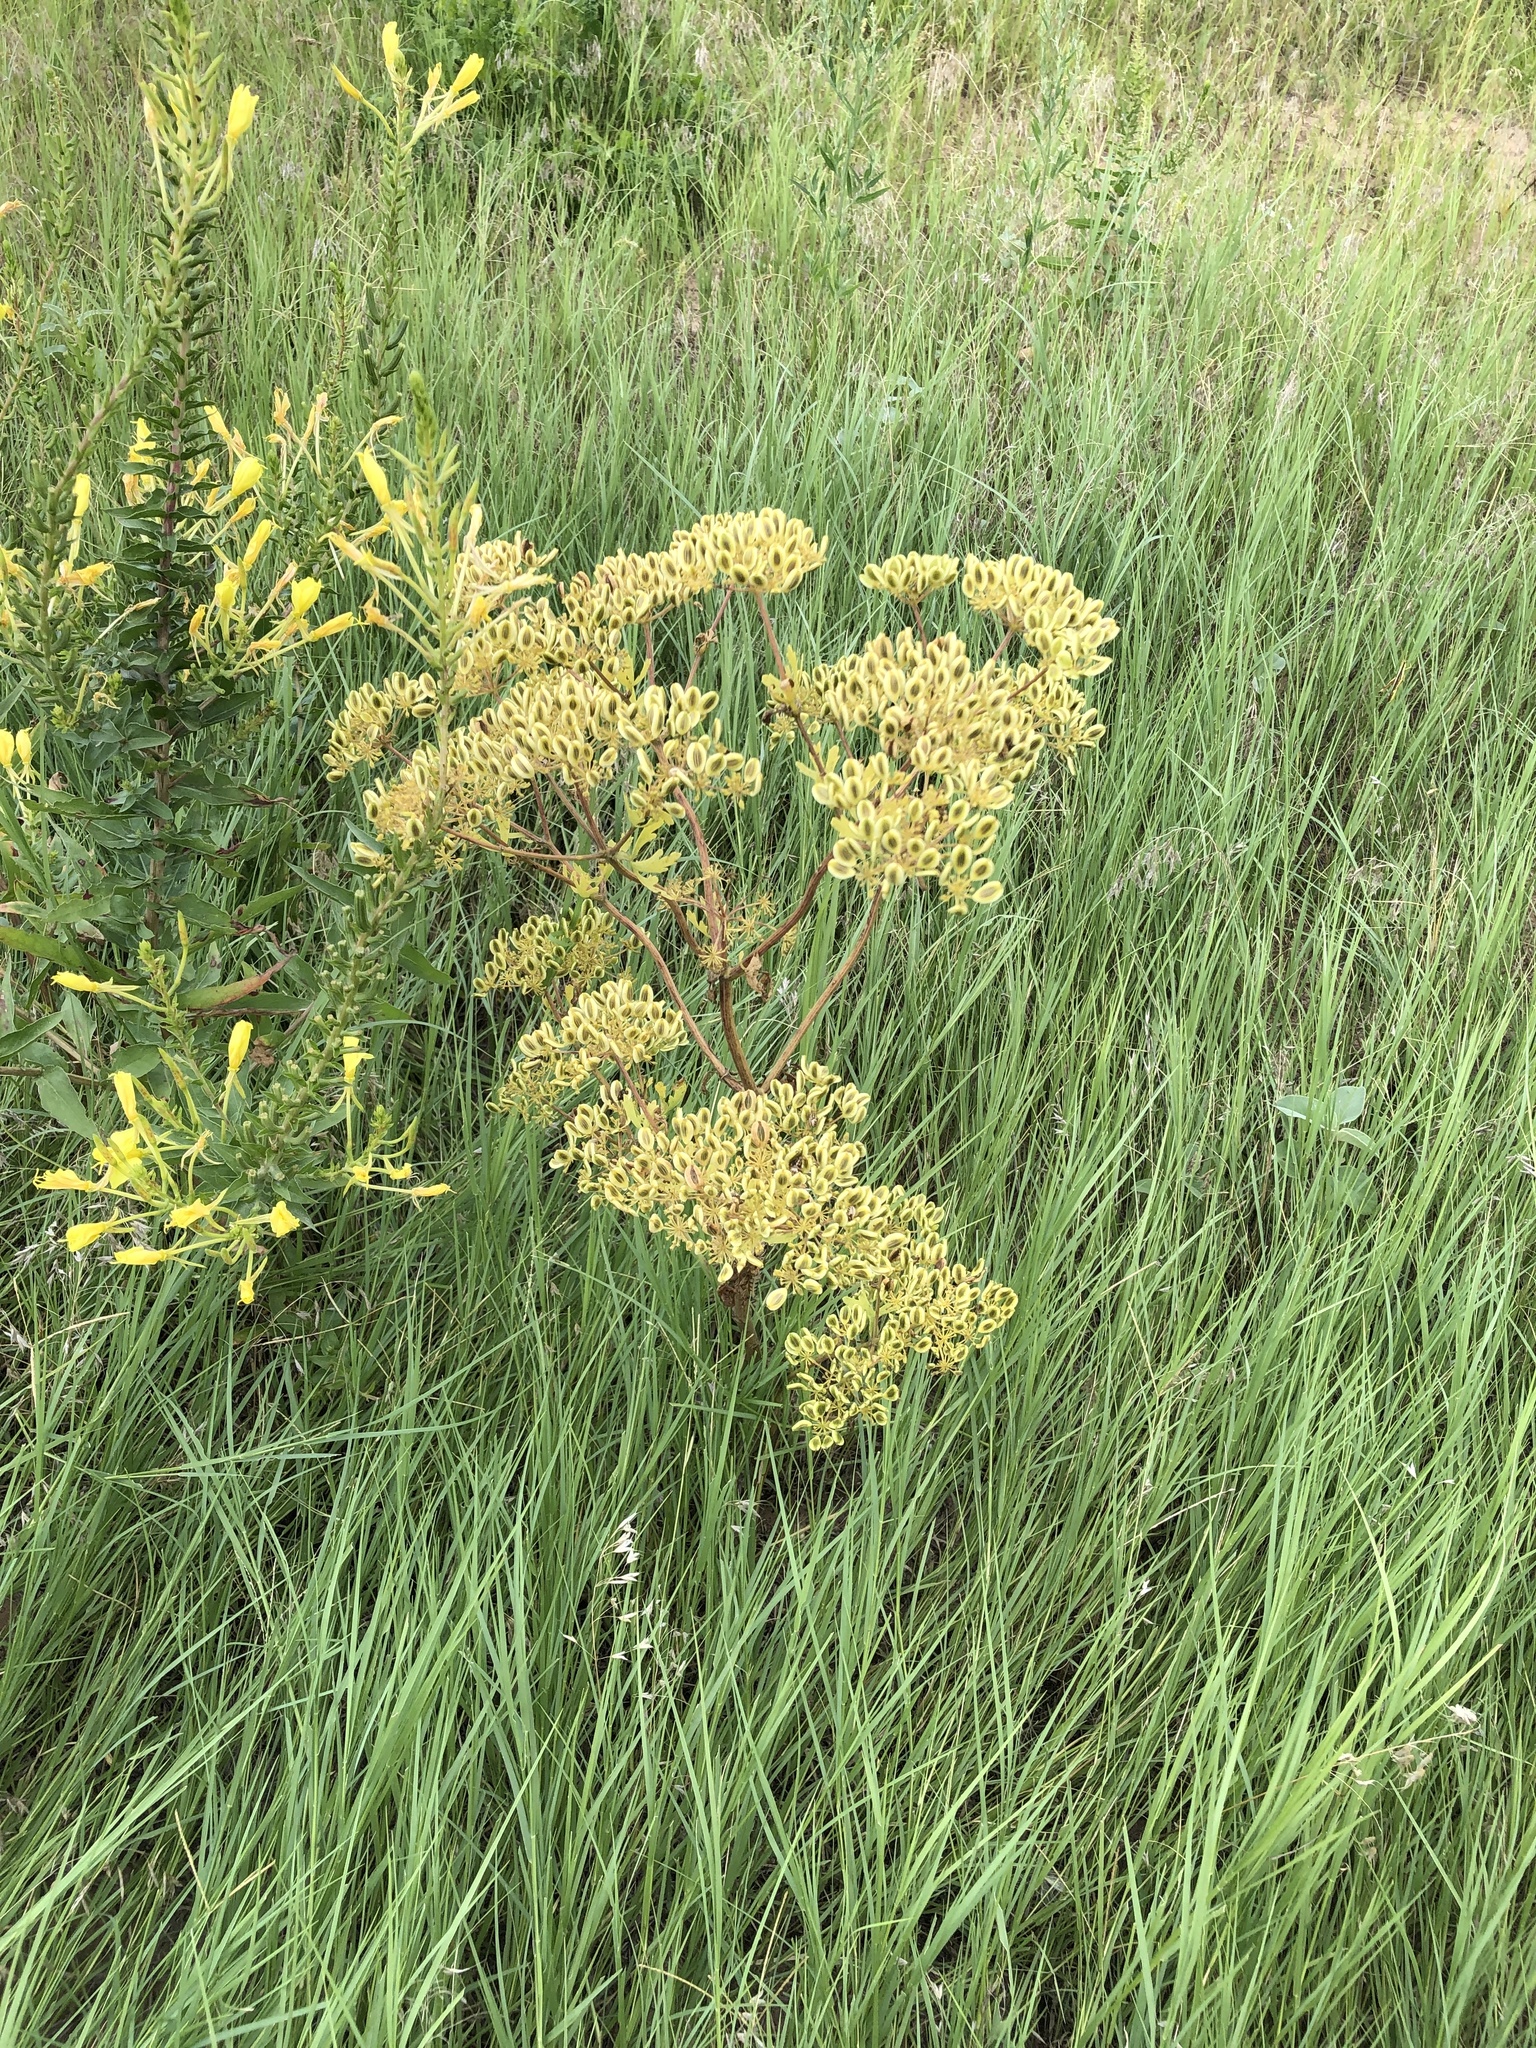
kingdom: Plantae
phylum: Tracheophyta
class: Magnoliopsida
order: Apiales
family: Apiaceae
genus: Polytaenia
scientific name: Polytaenia texana
